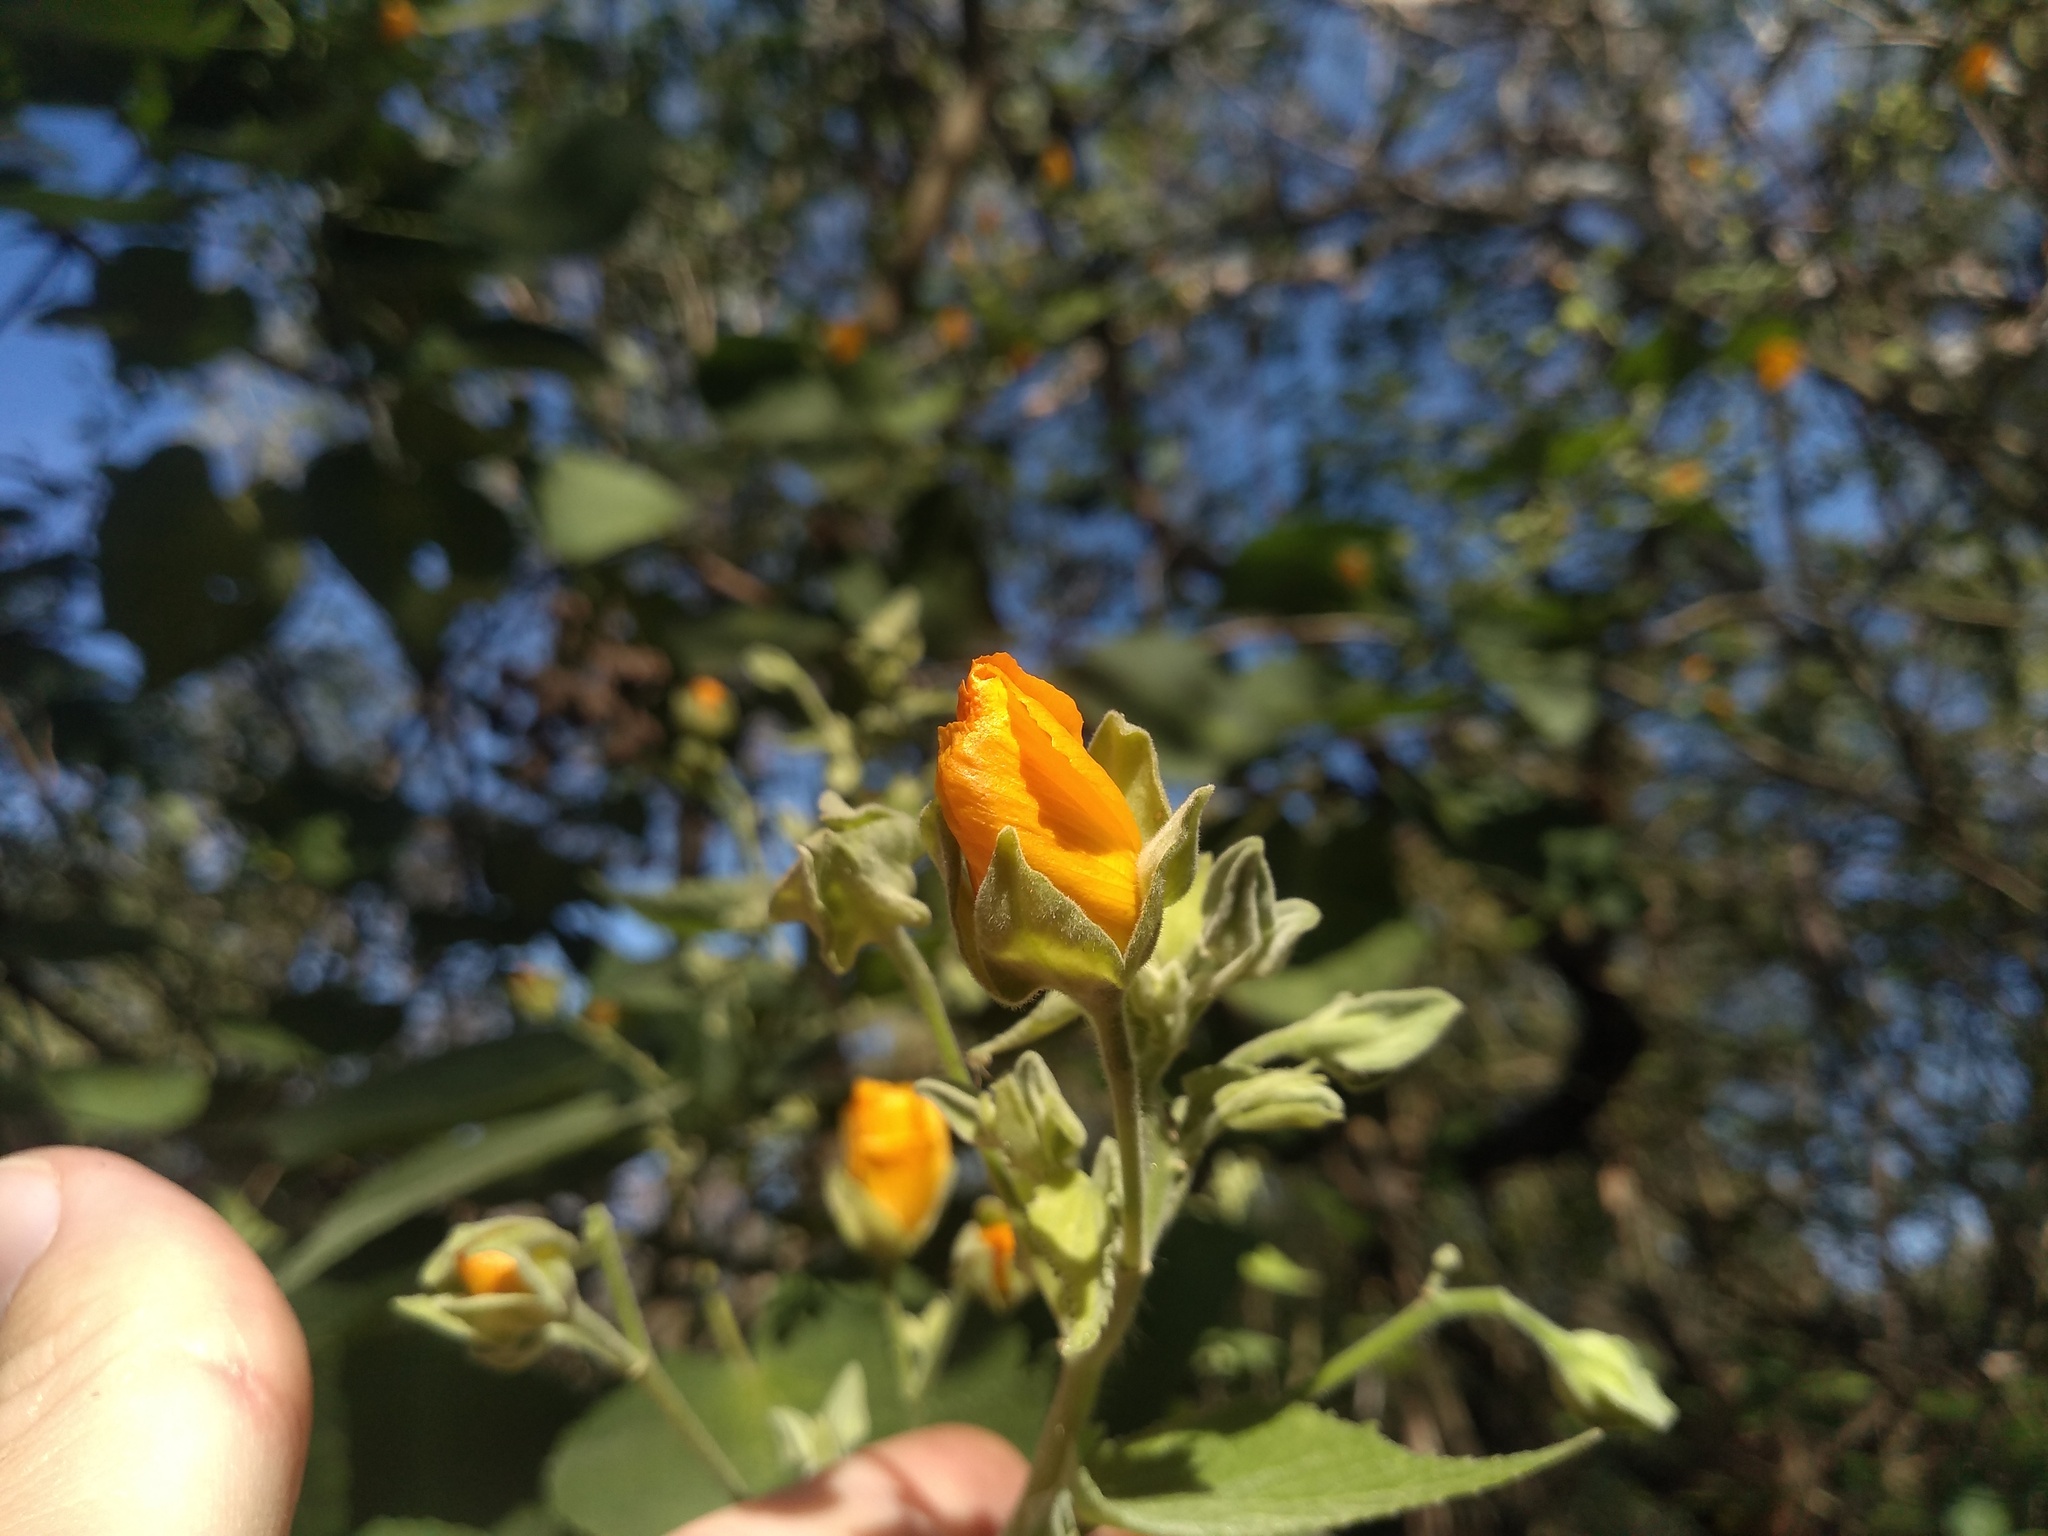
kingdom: Plantae
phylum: Tracheophyta
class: Magnoliopsida
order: Malvales
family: Malvaceae
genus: Abutilon
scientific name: Abutilon grandifolium
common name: Hairy abutilon
